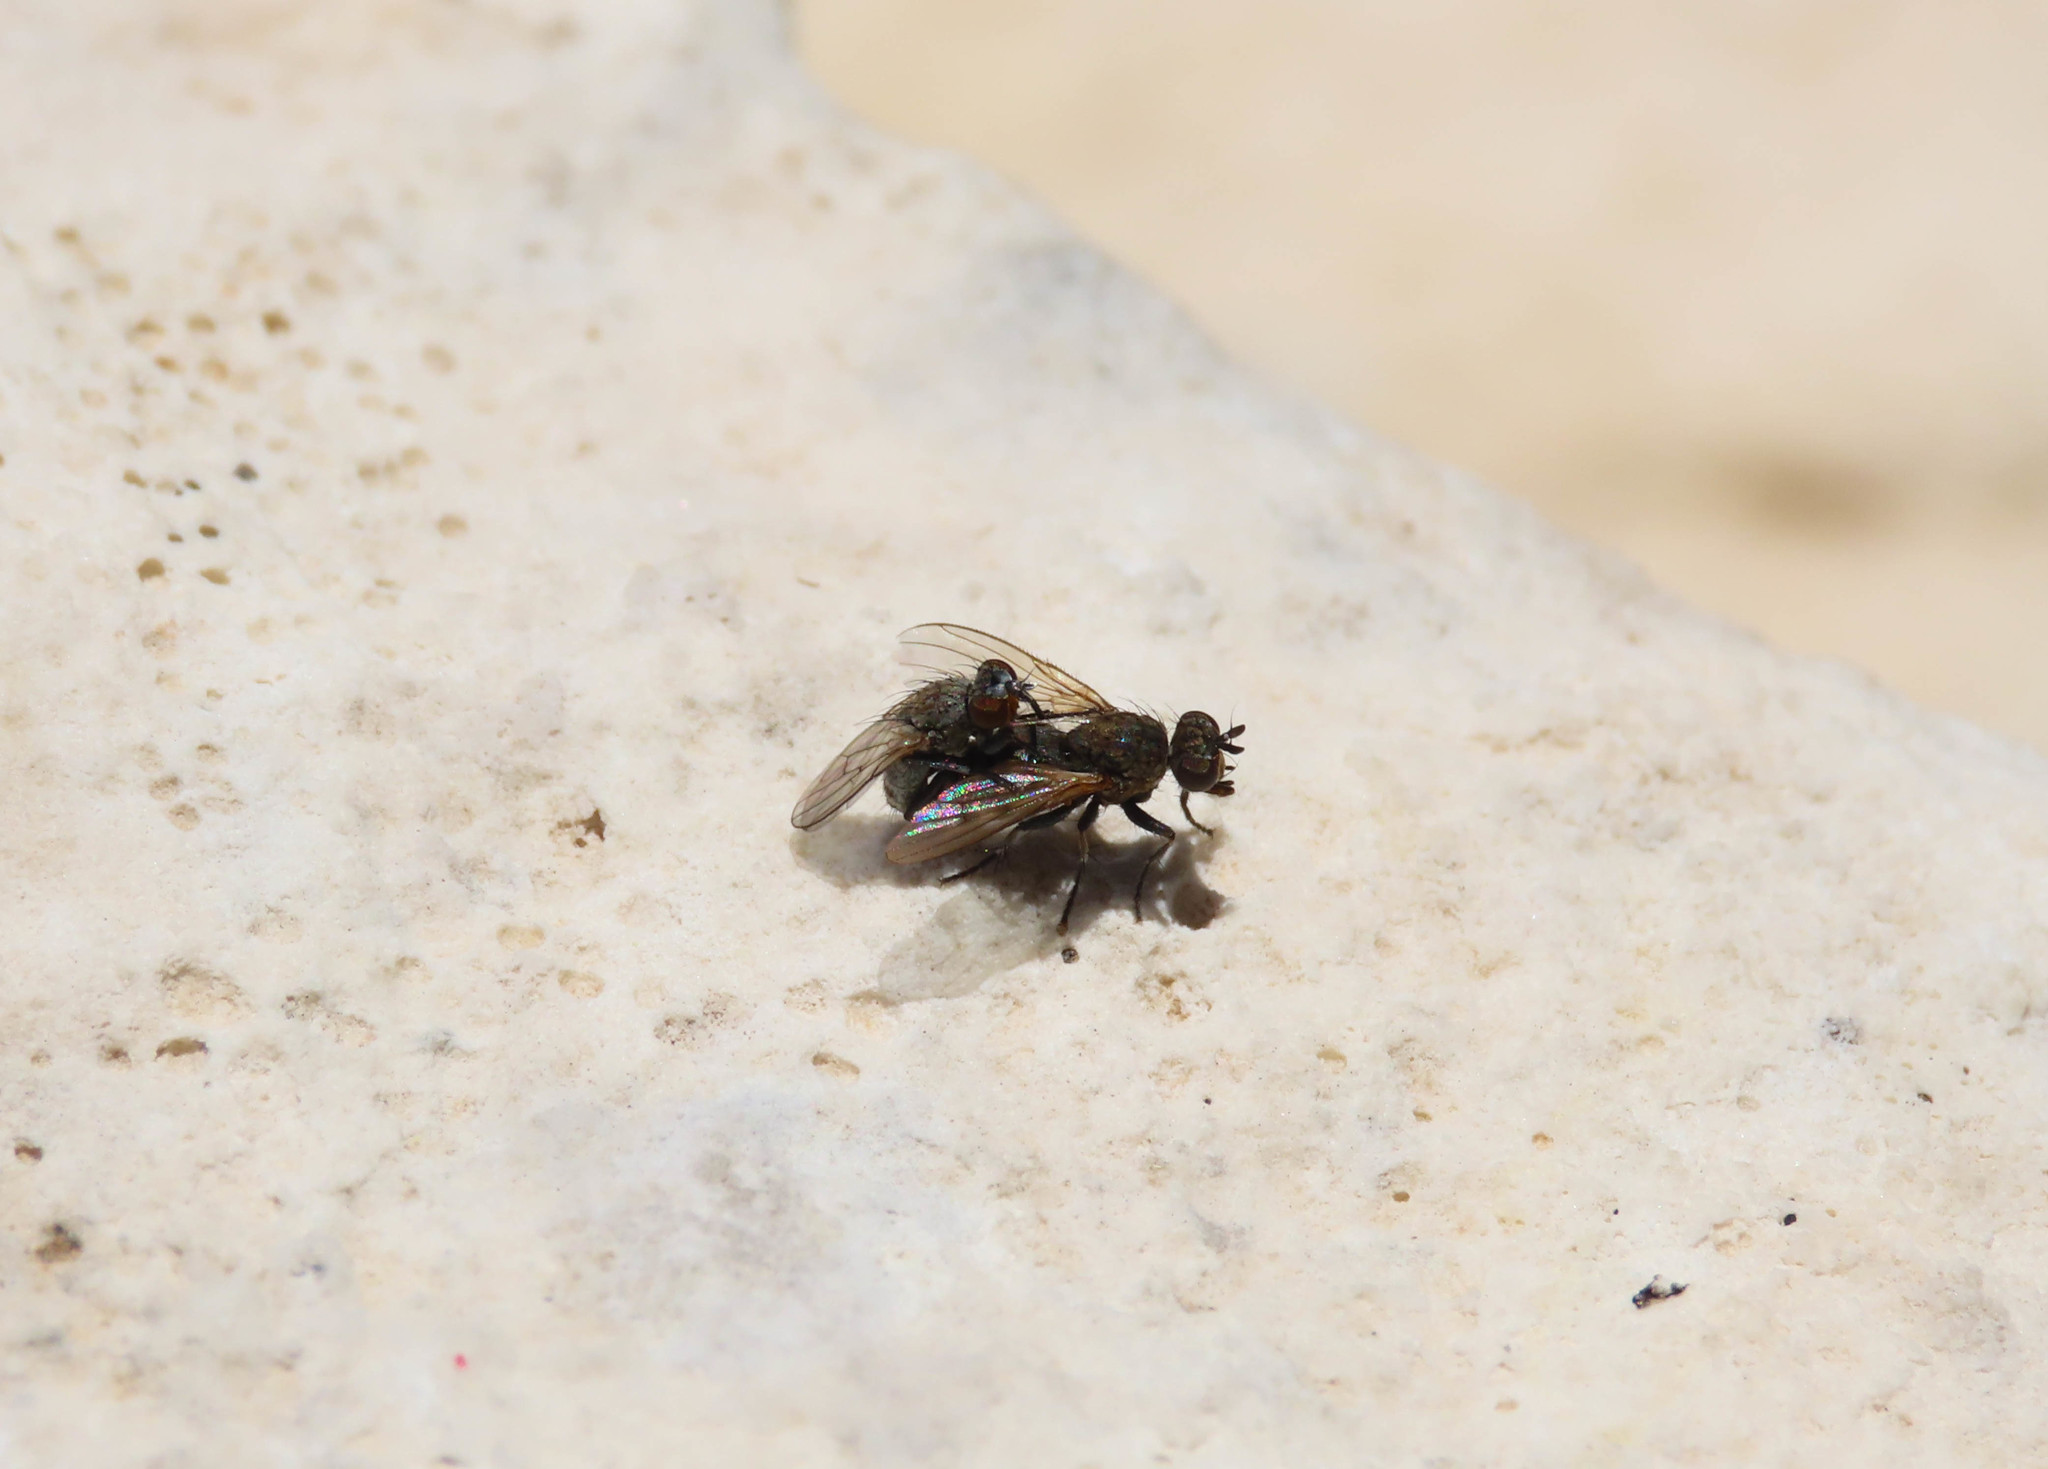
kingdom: Animalia
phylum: Arthropoda
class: Insecta
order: Diptera
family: Muscidae
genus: Schoenomyza
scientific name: Schoenomyza litorella
